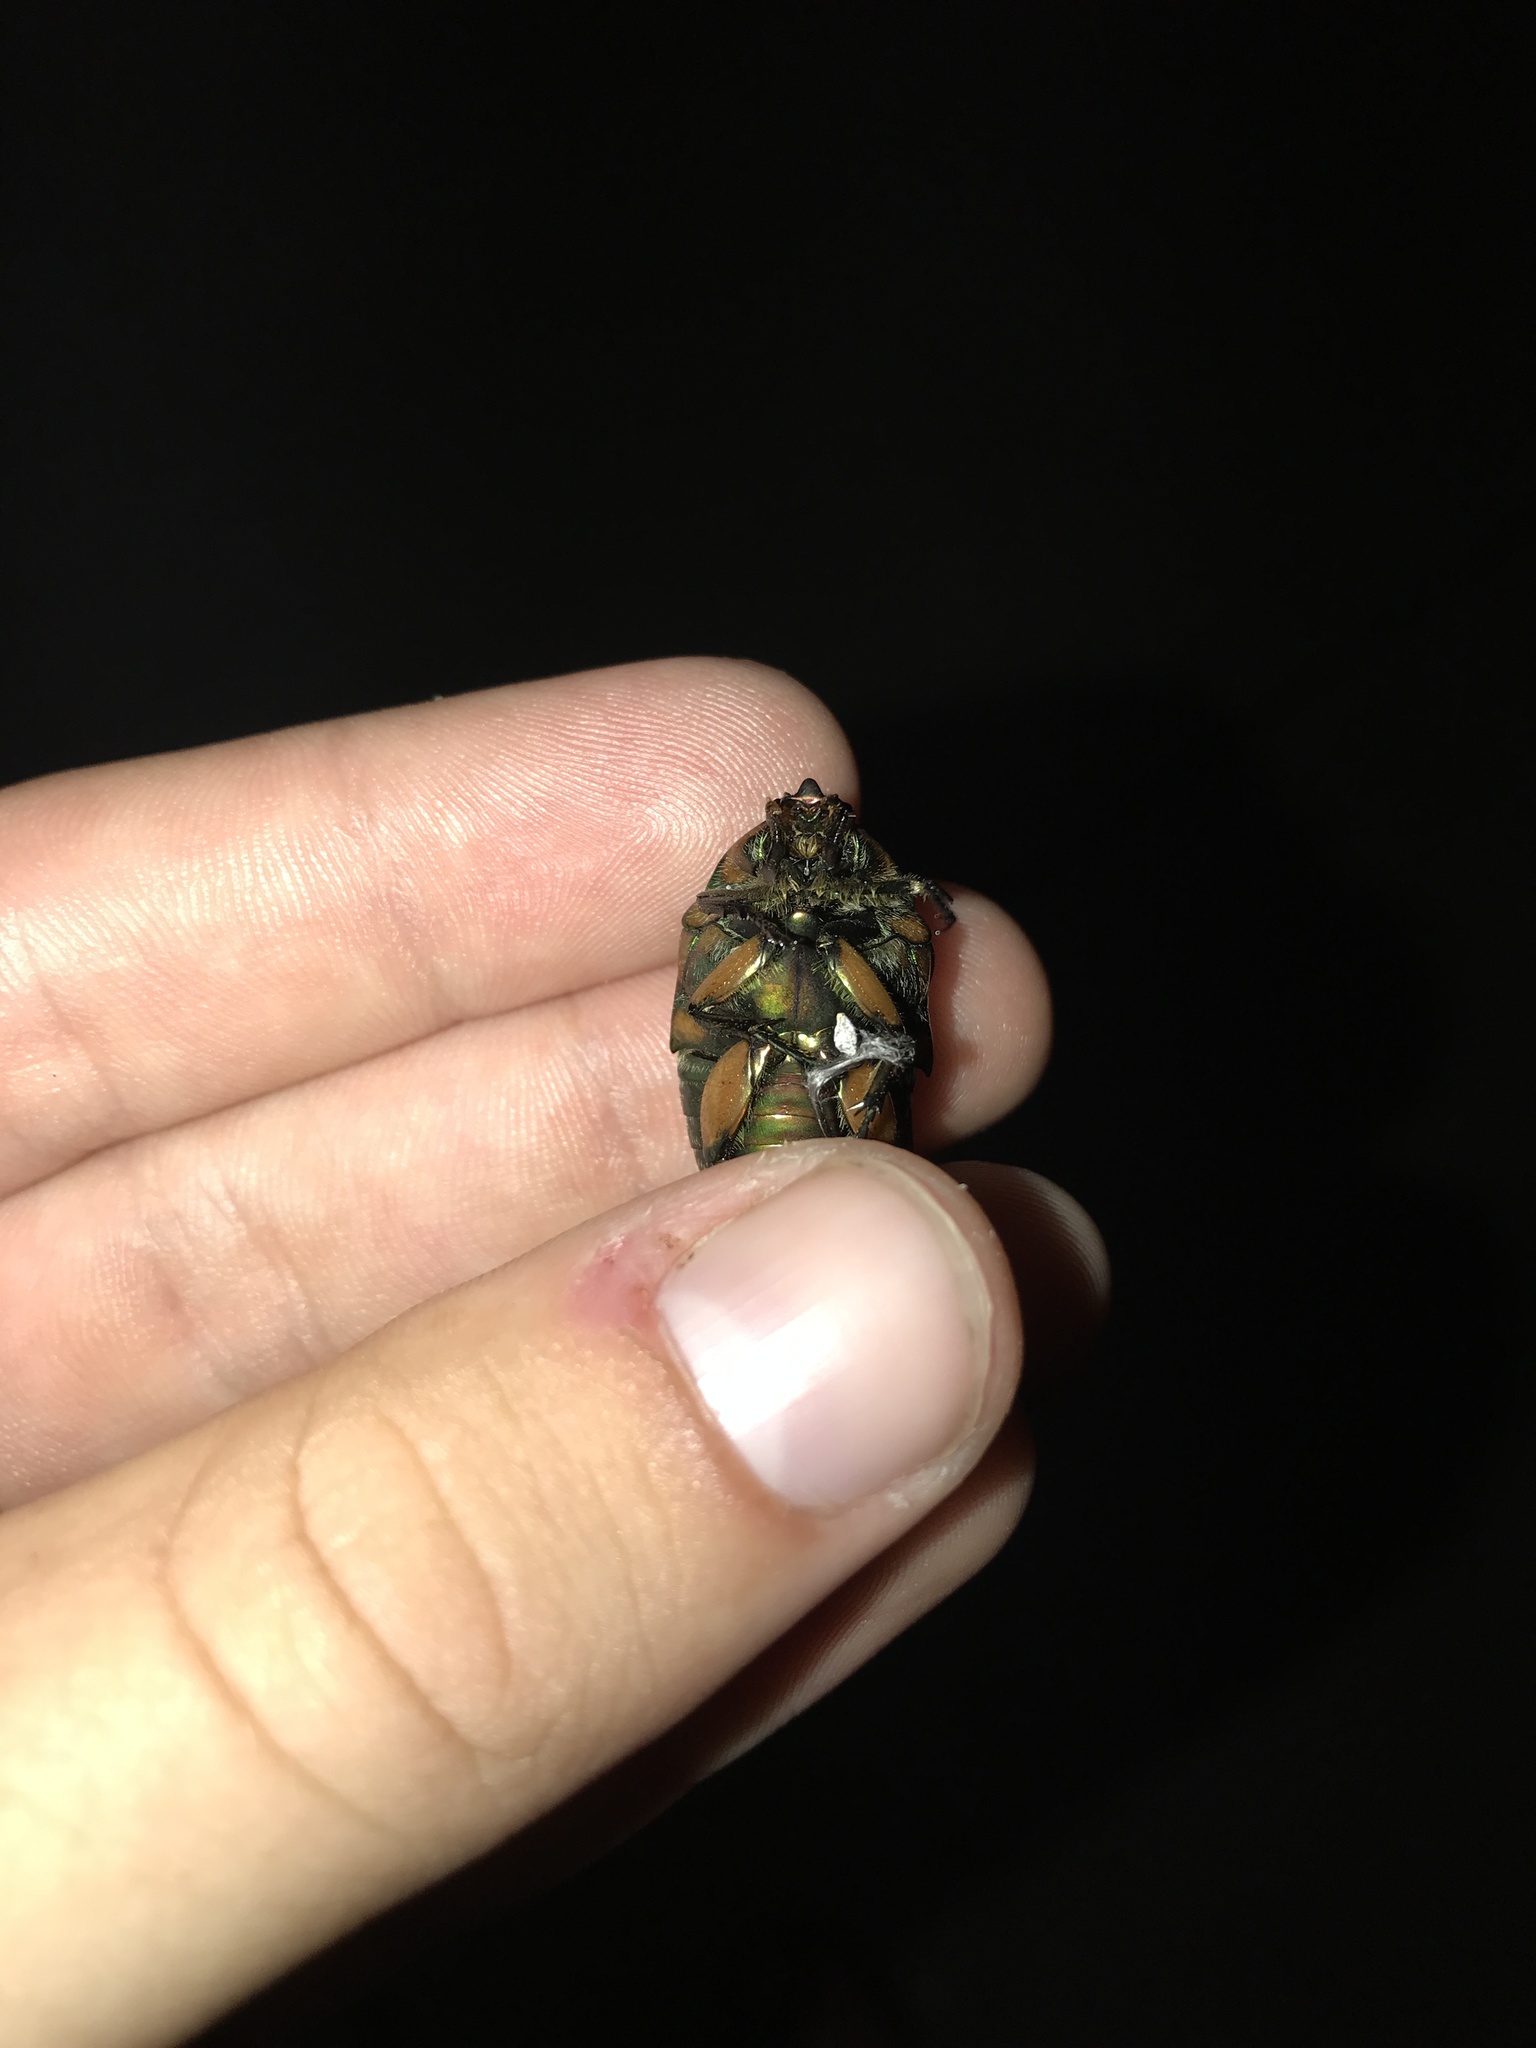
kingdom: Animalia
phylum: Arthropoda
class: Insecta
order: Coleoptera
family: Scarabaeidae
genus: Cotinis
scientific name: Cotinis nitida
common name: Common green june beetle
